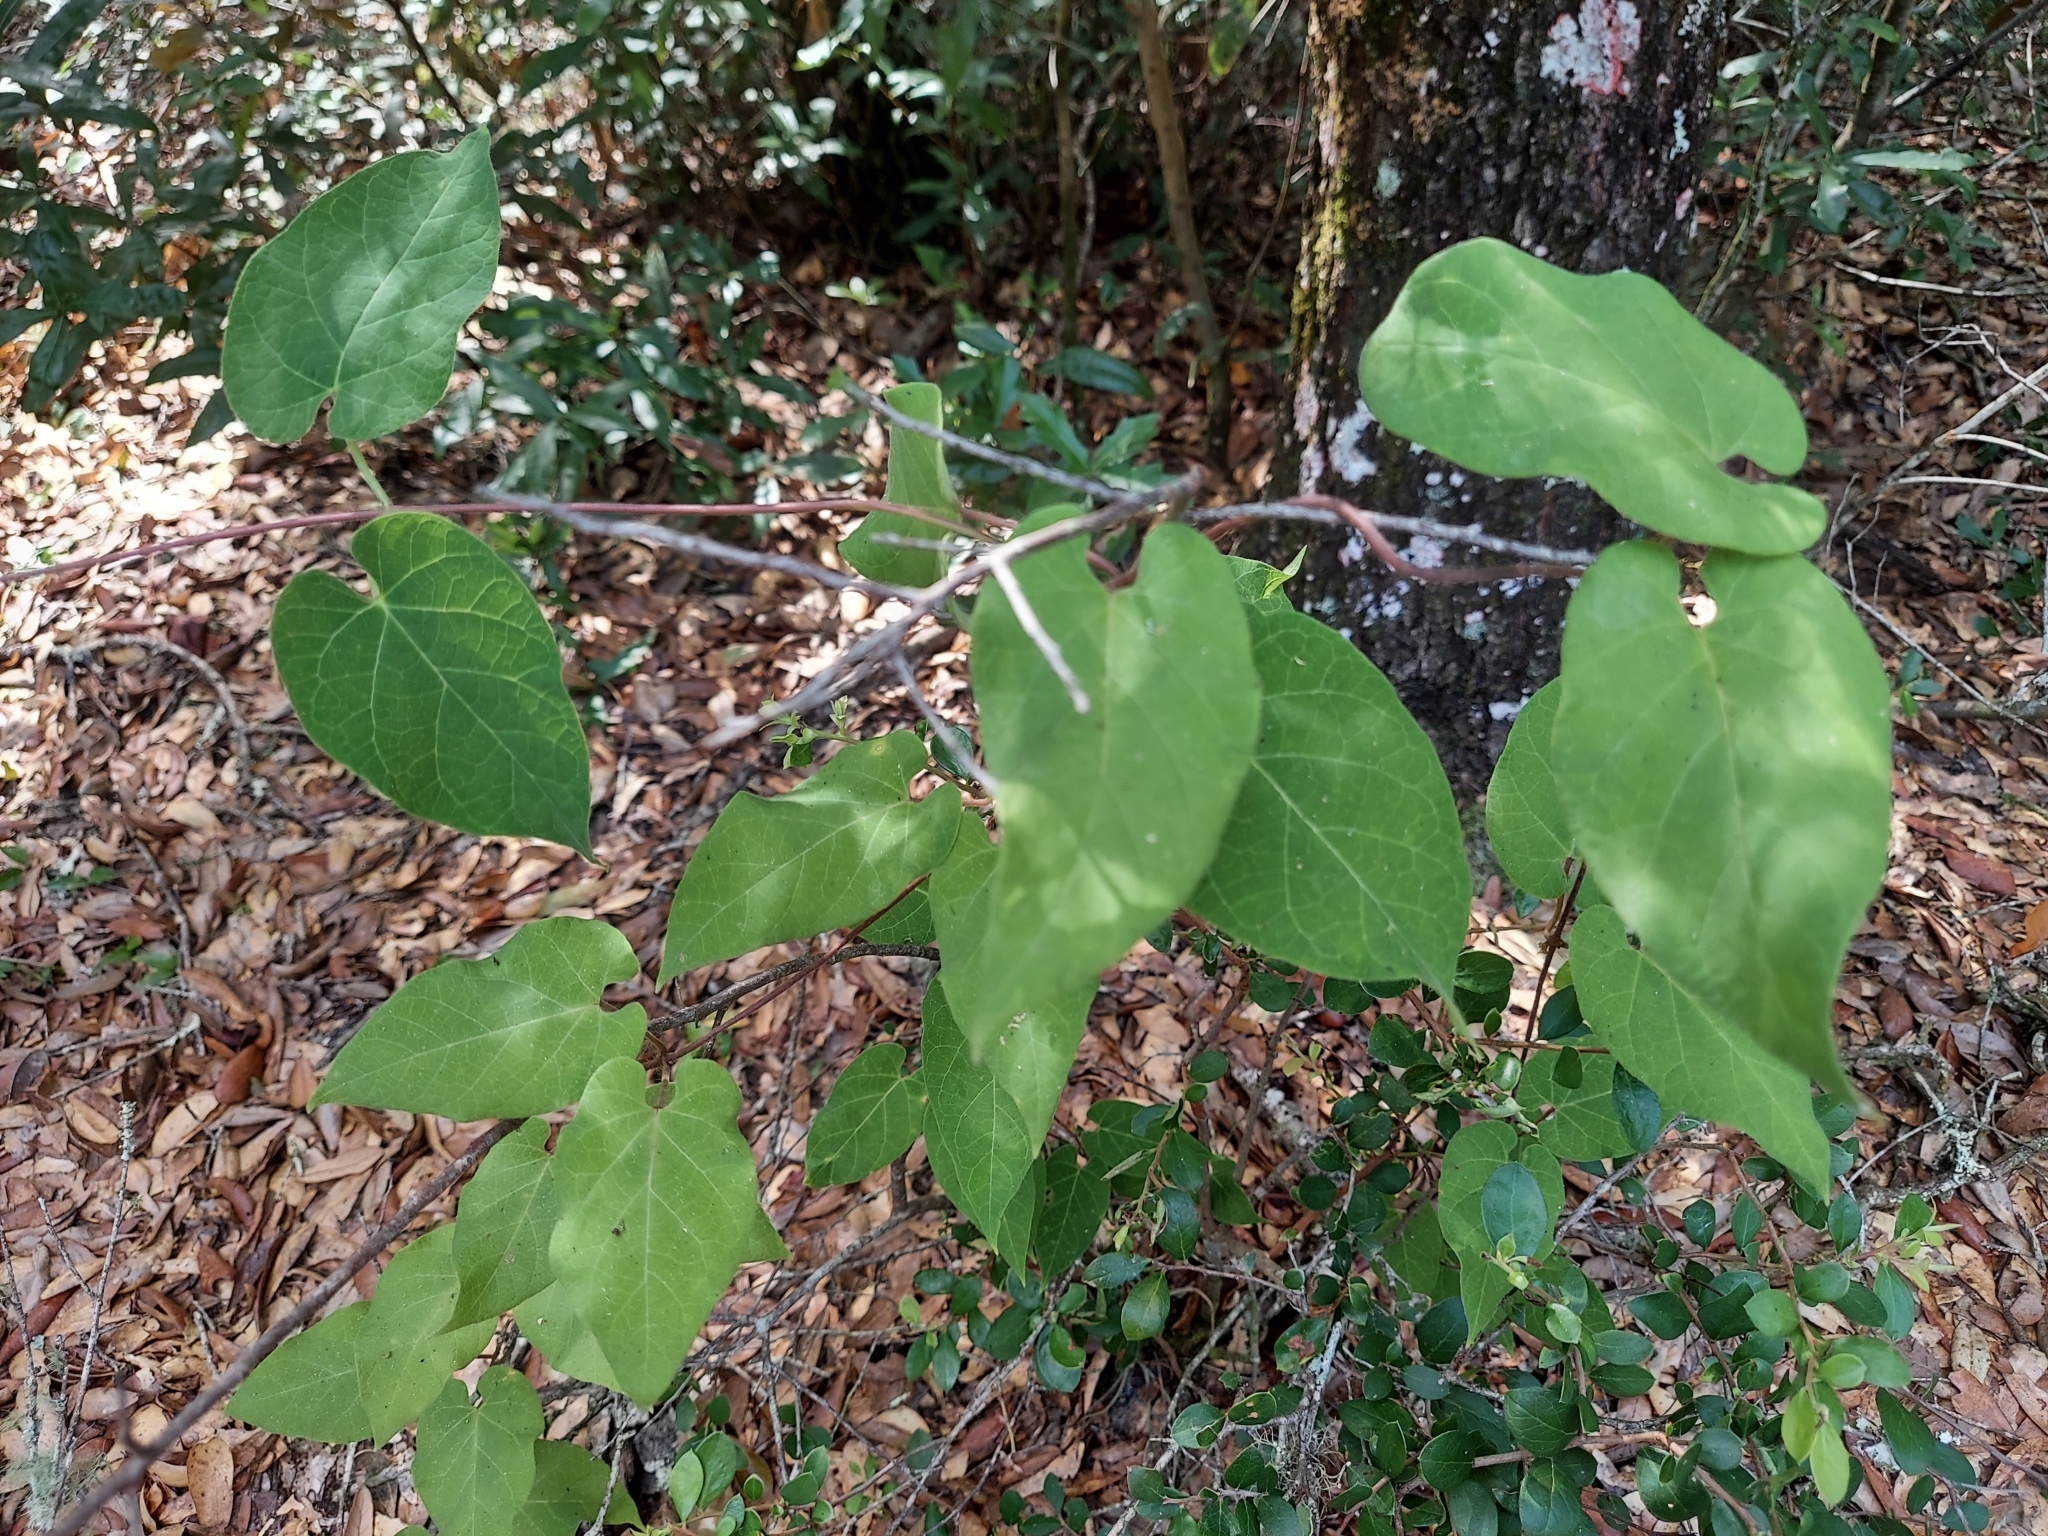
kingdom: Plantae
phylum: Tracheophyta
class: Magnoliopsida
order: Gentianales
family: Apocynaceae
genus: Matelea
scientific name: Matelea floridana
